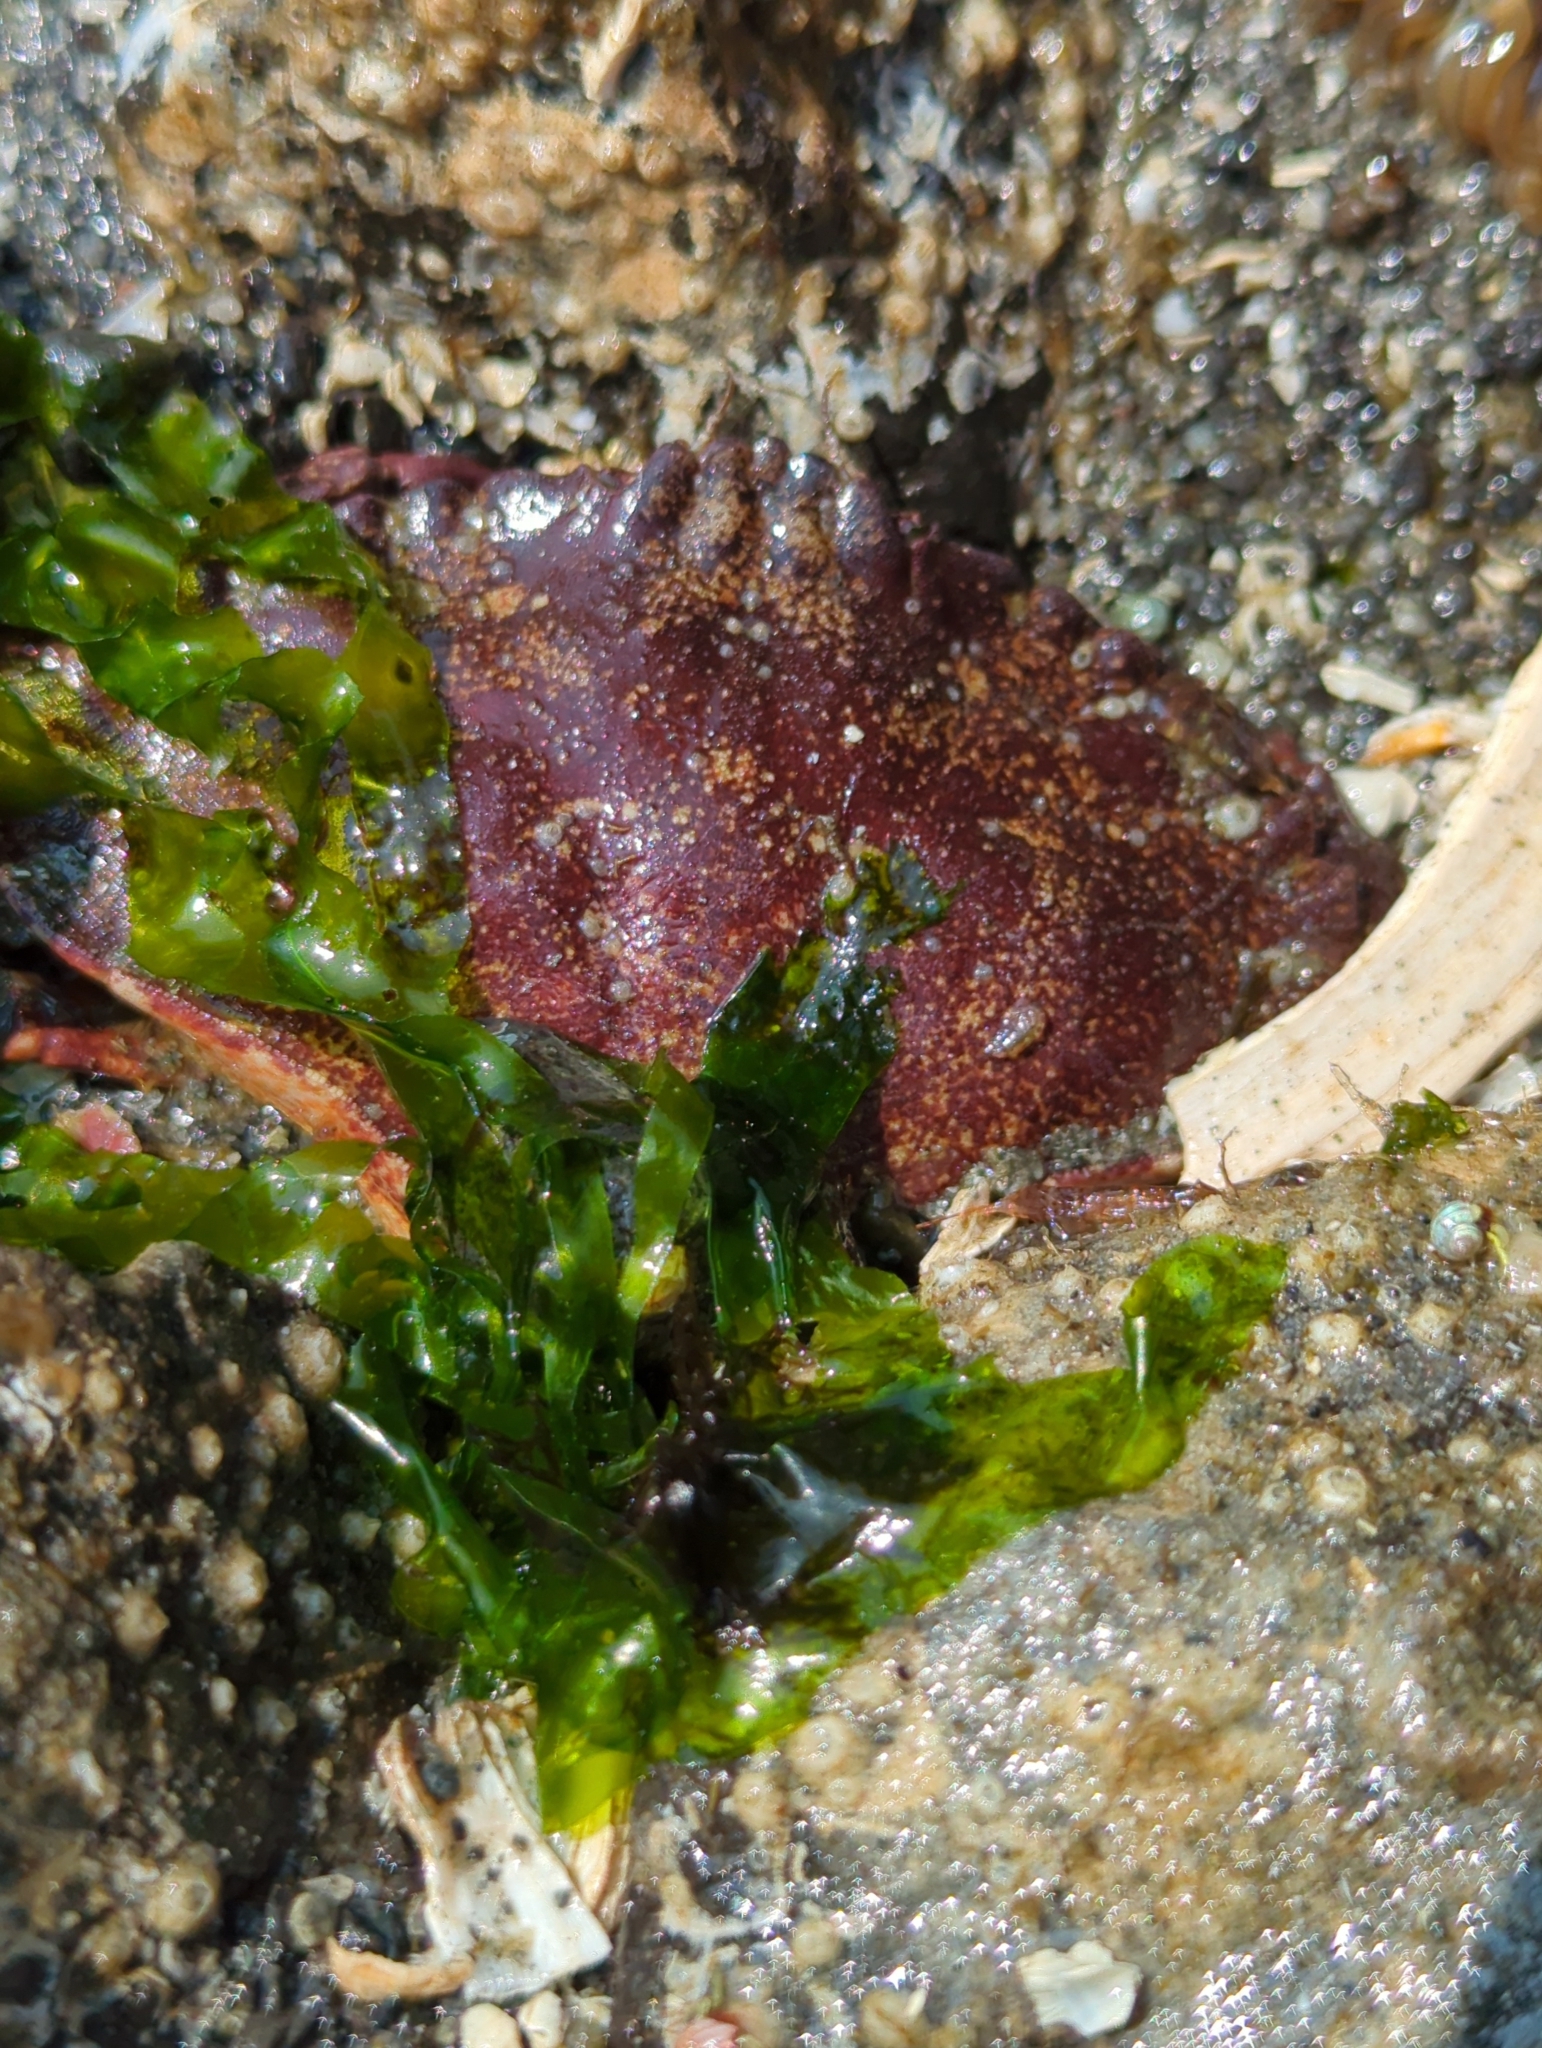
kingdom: Animalia
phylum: Arthropoda
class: Malacostraca
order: Decapoda
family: Cancridae
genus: Cancer
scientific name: Cancer productus
